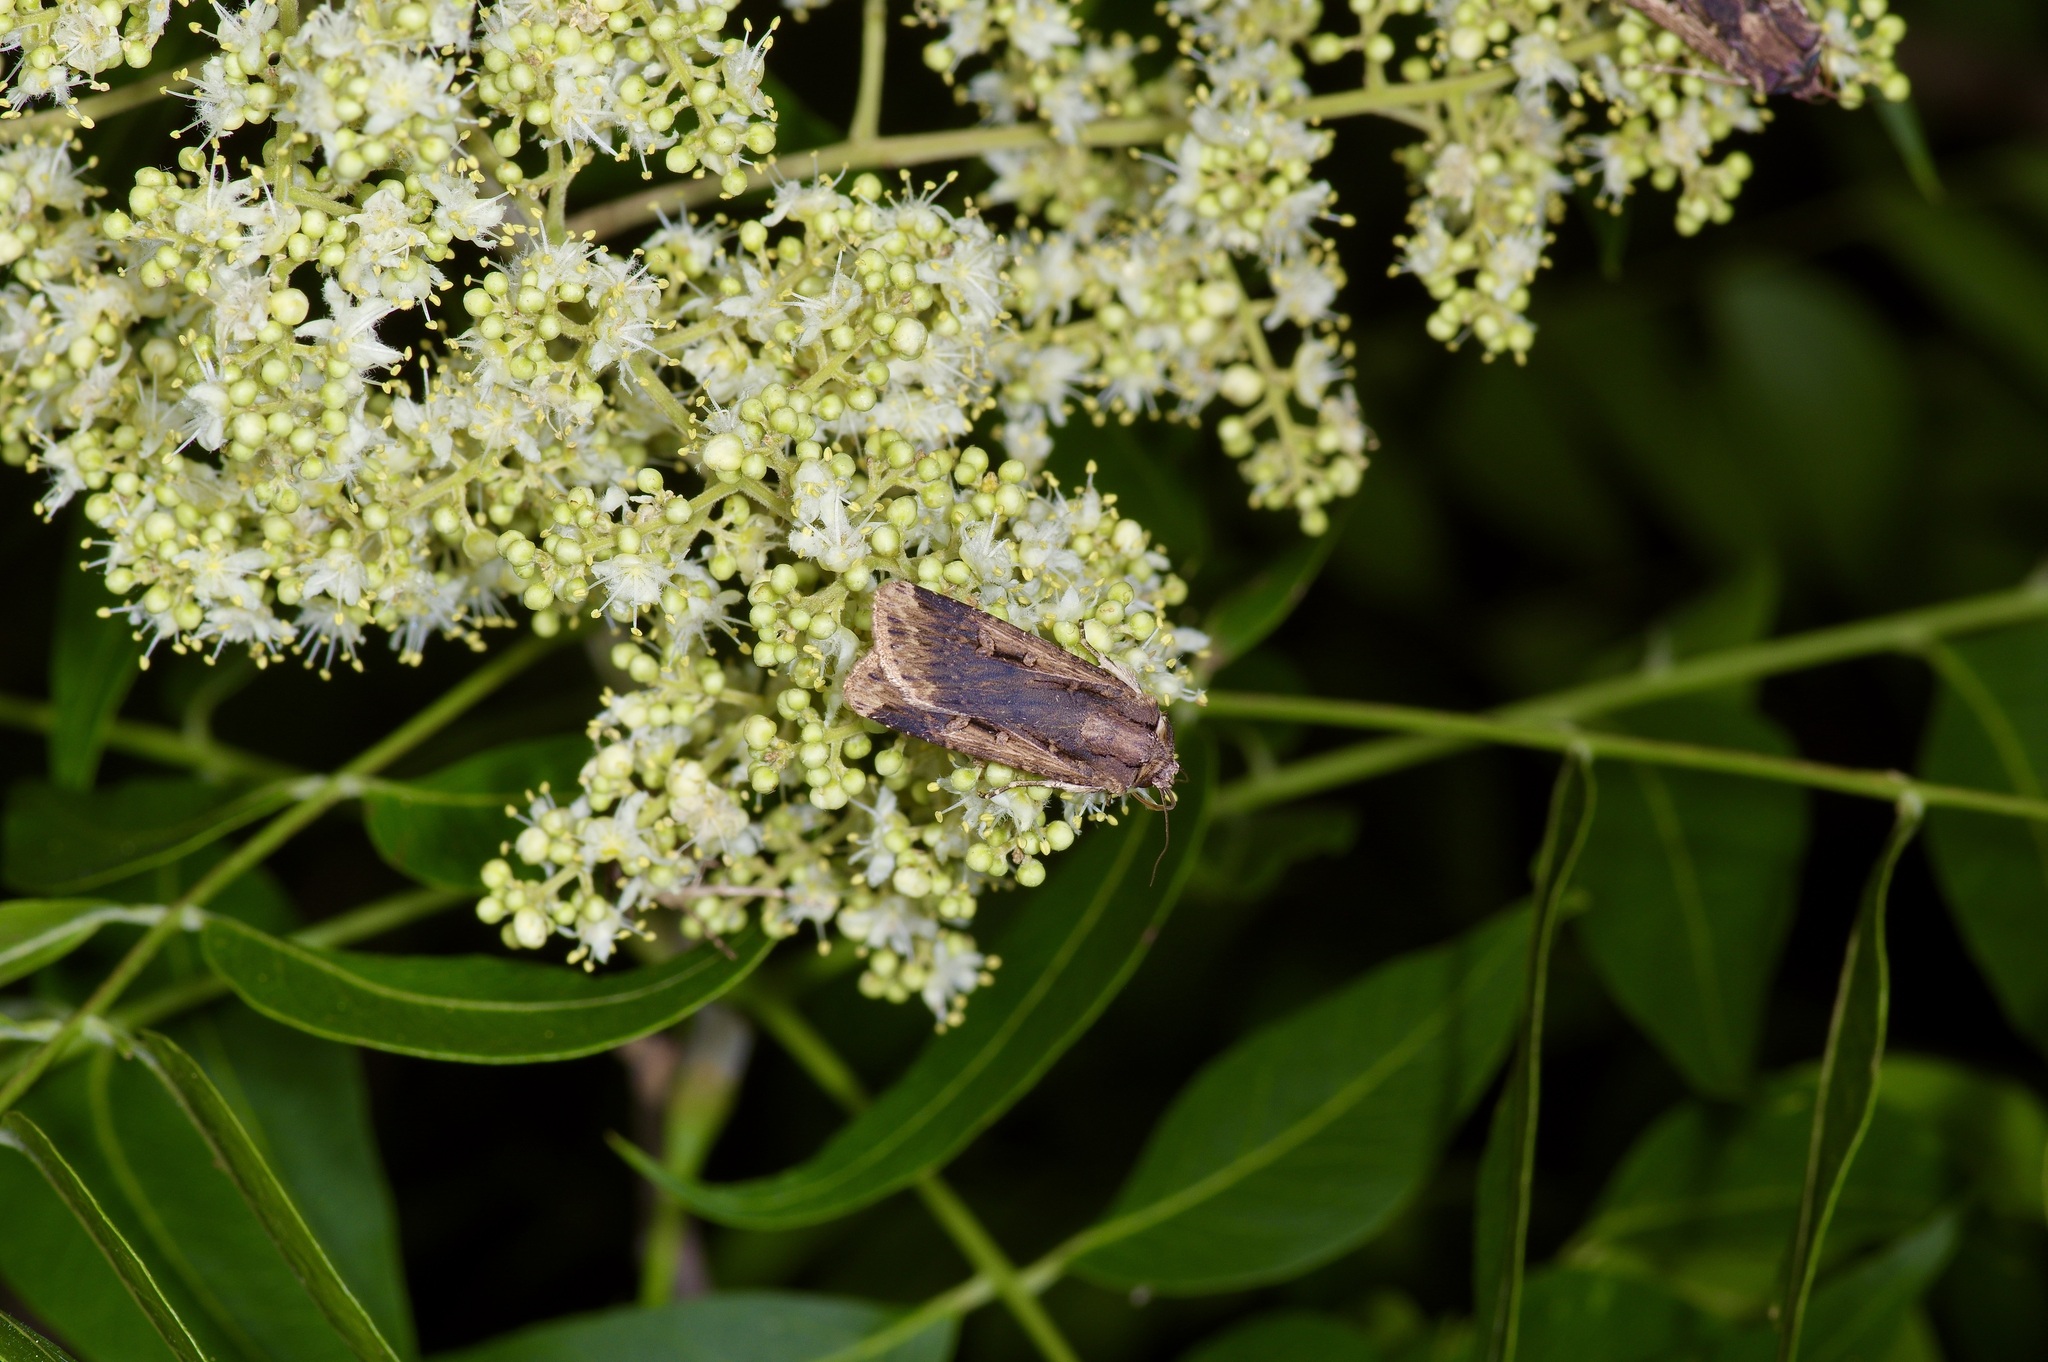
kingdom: Animalia
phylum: Arthropoda
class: Insecta
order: Lepidoptera
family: Noctuidae
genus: Feltia
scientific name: Feltia subterranea
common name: Granulate cutworm
